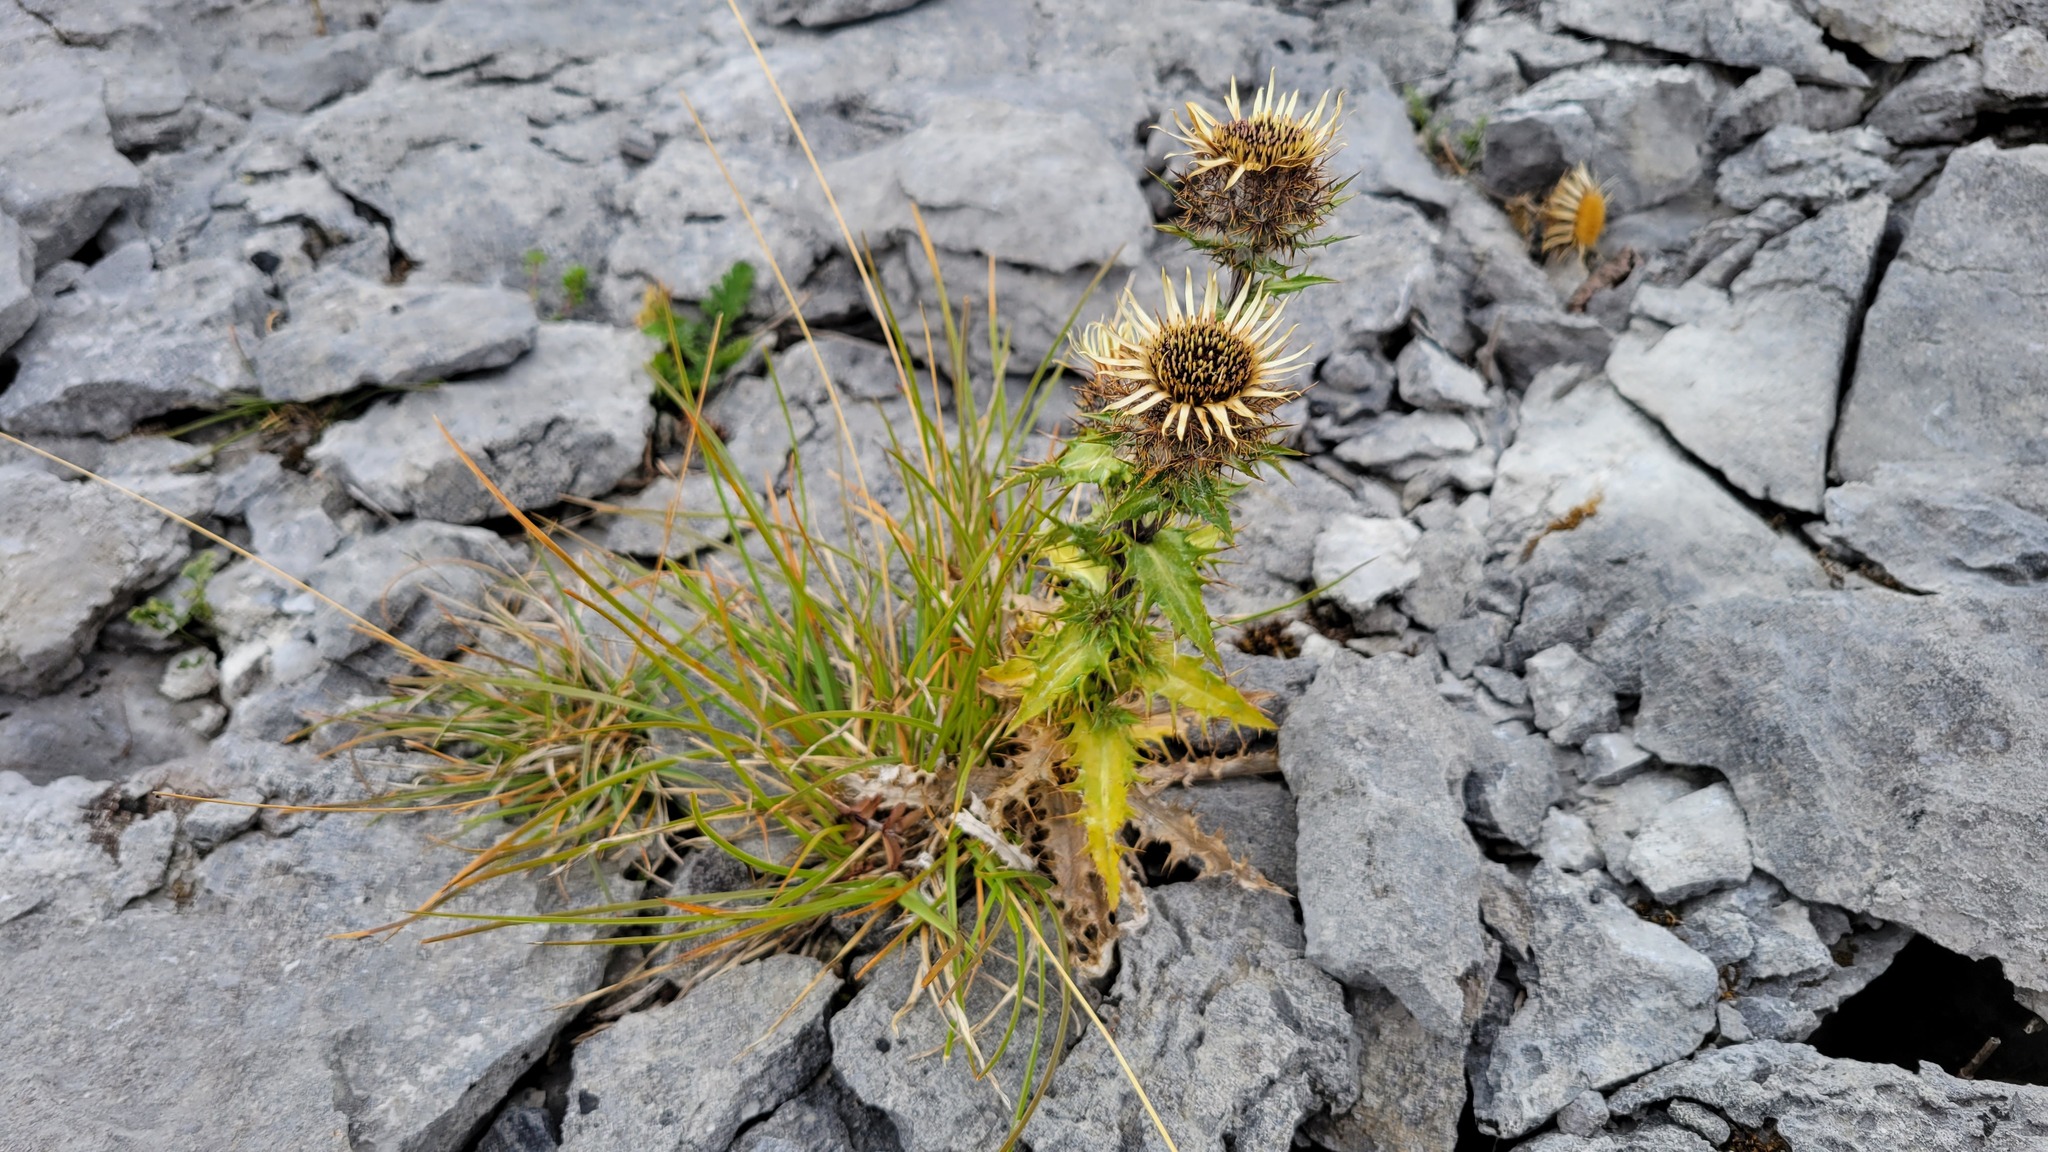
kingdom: Plantae
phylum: Tracheophyta
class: Magnoliopsida
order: Asterales
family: Asteraceae
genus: Carlina
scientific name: Carlina vulgaris
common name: Carline thistle
